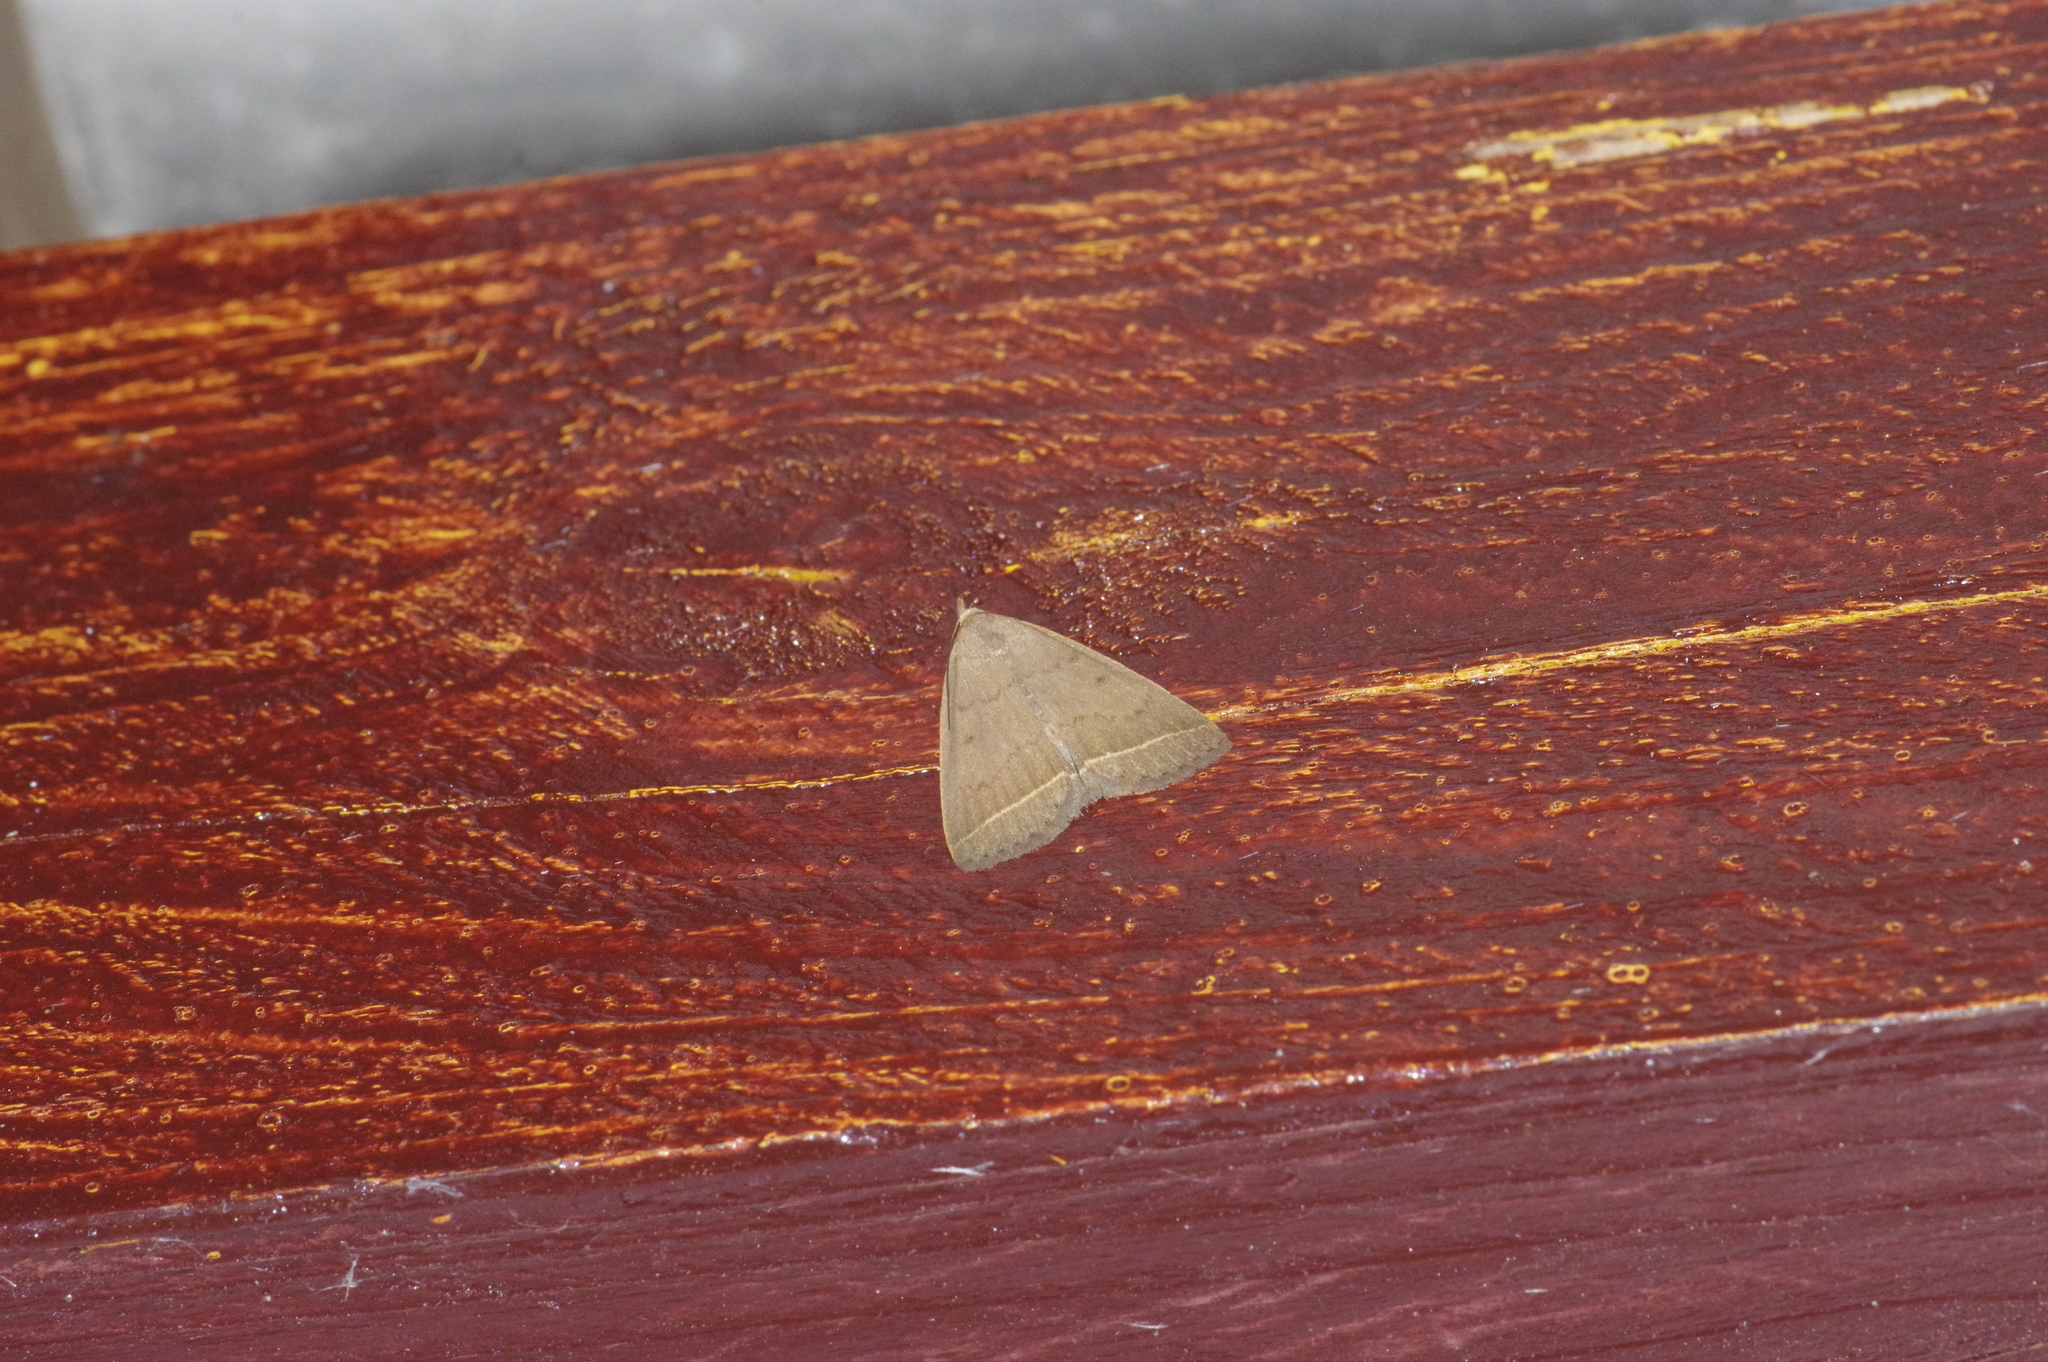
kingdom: Animalia
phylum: Arthropoda
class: Insecta
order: Lepidoptera
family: Erebidae
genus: Simplicia
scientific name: Simplicia xanthoma
